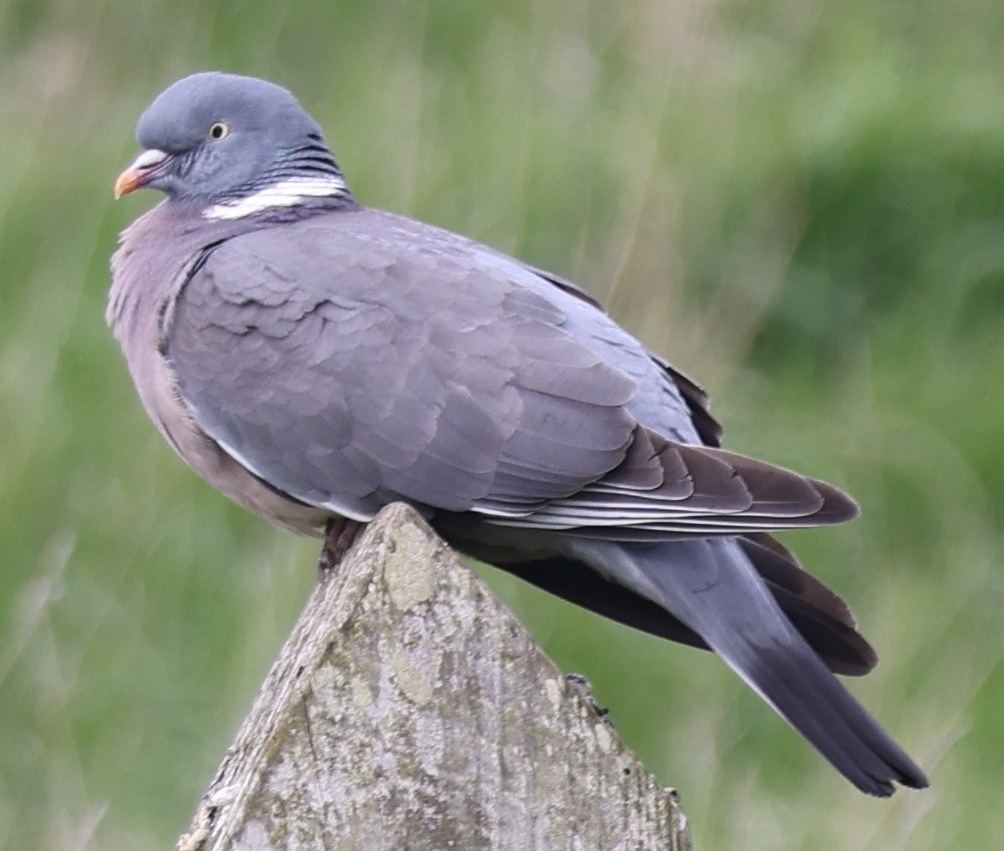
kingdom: Animalia
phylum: Chordata
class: Aves
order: Columbiformes
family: Columbidae
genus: Columba
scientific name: Columba palumbus
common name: Common wood pigeon
